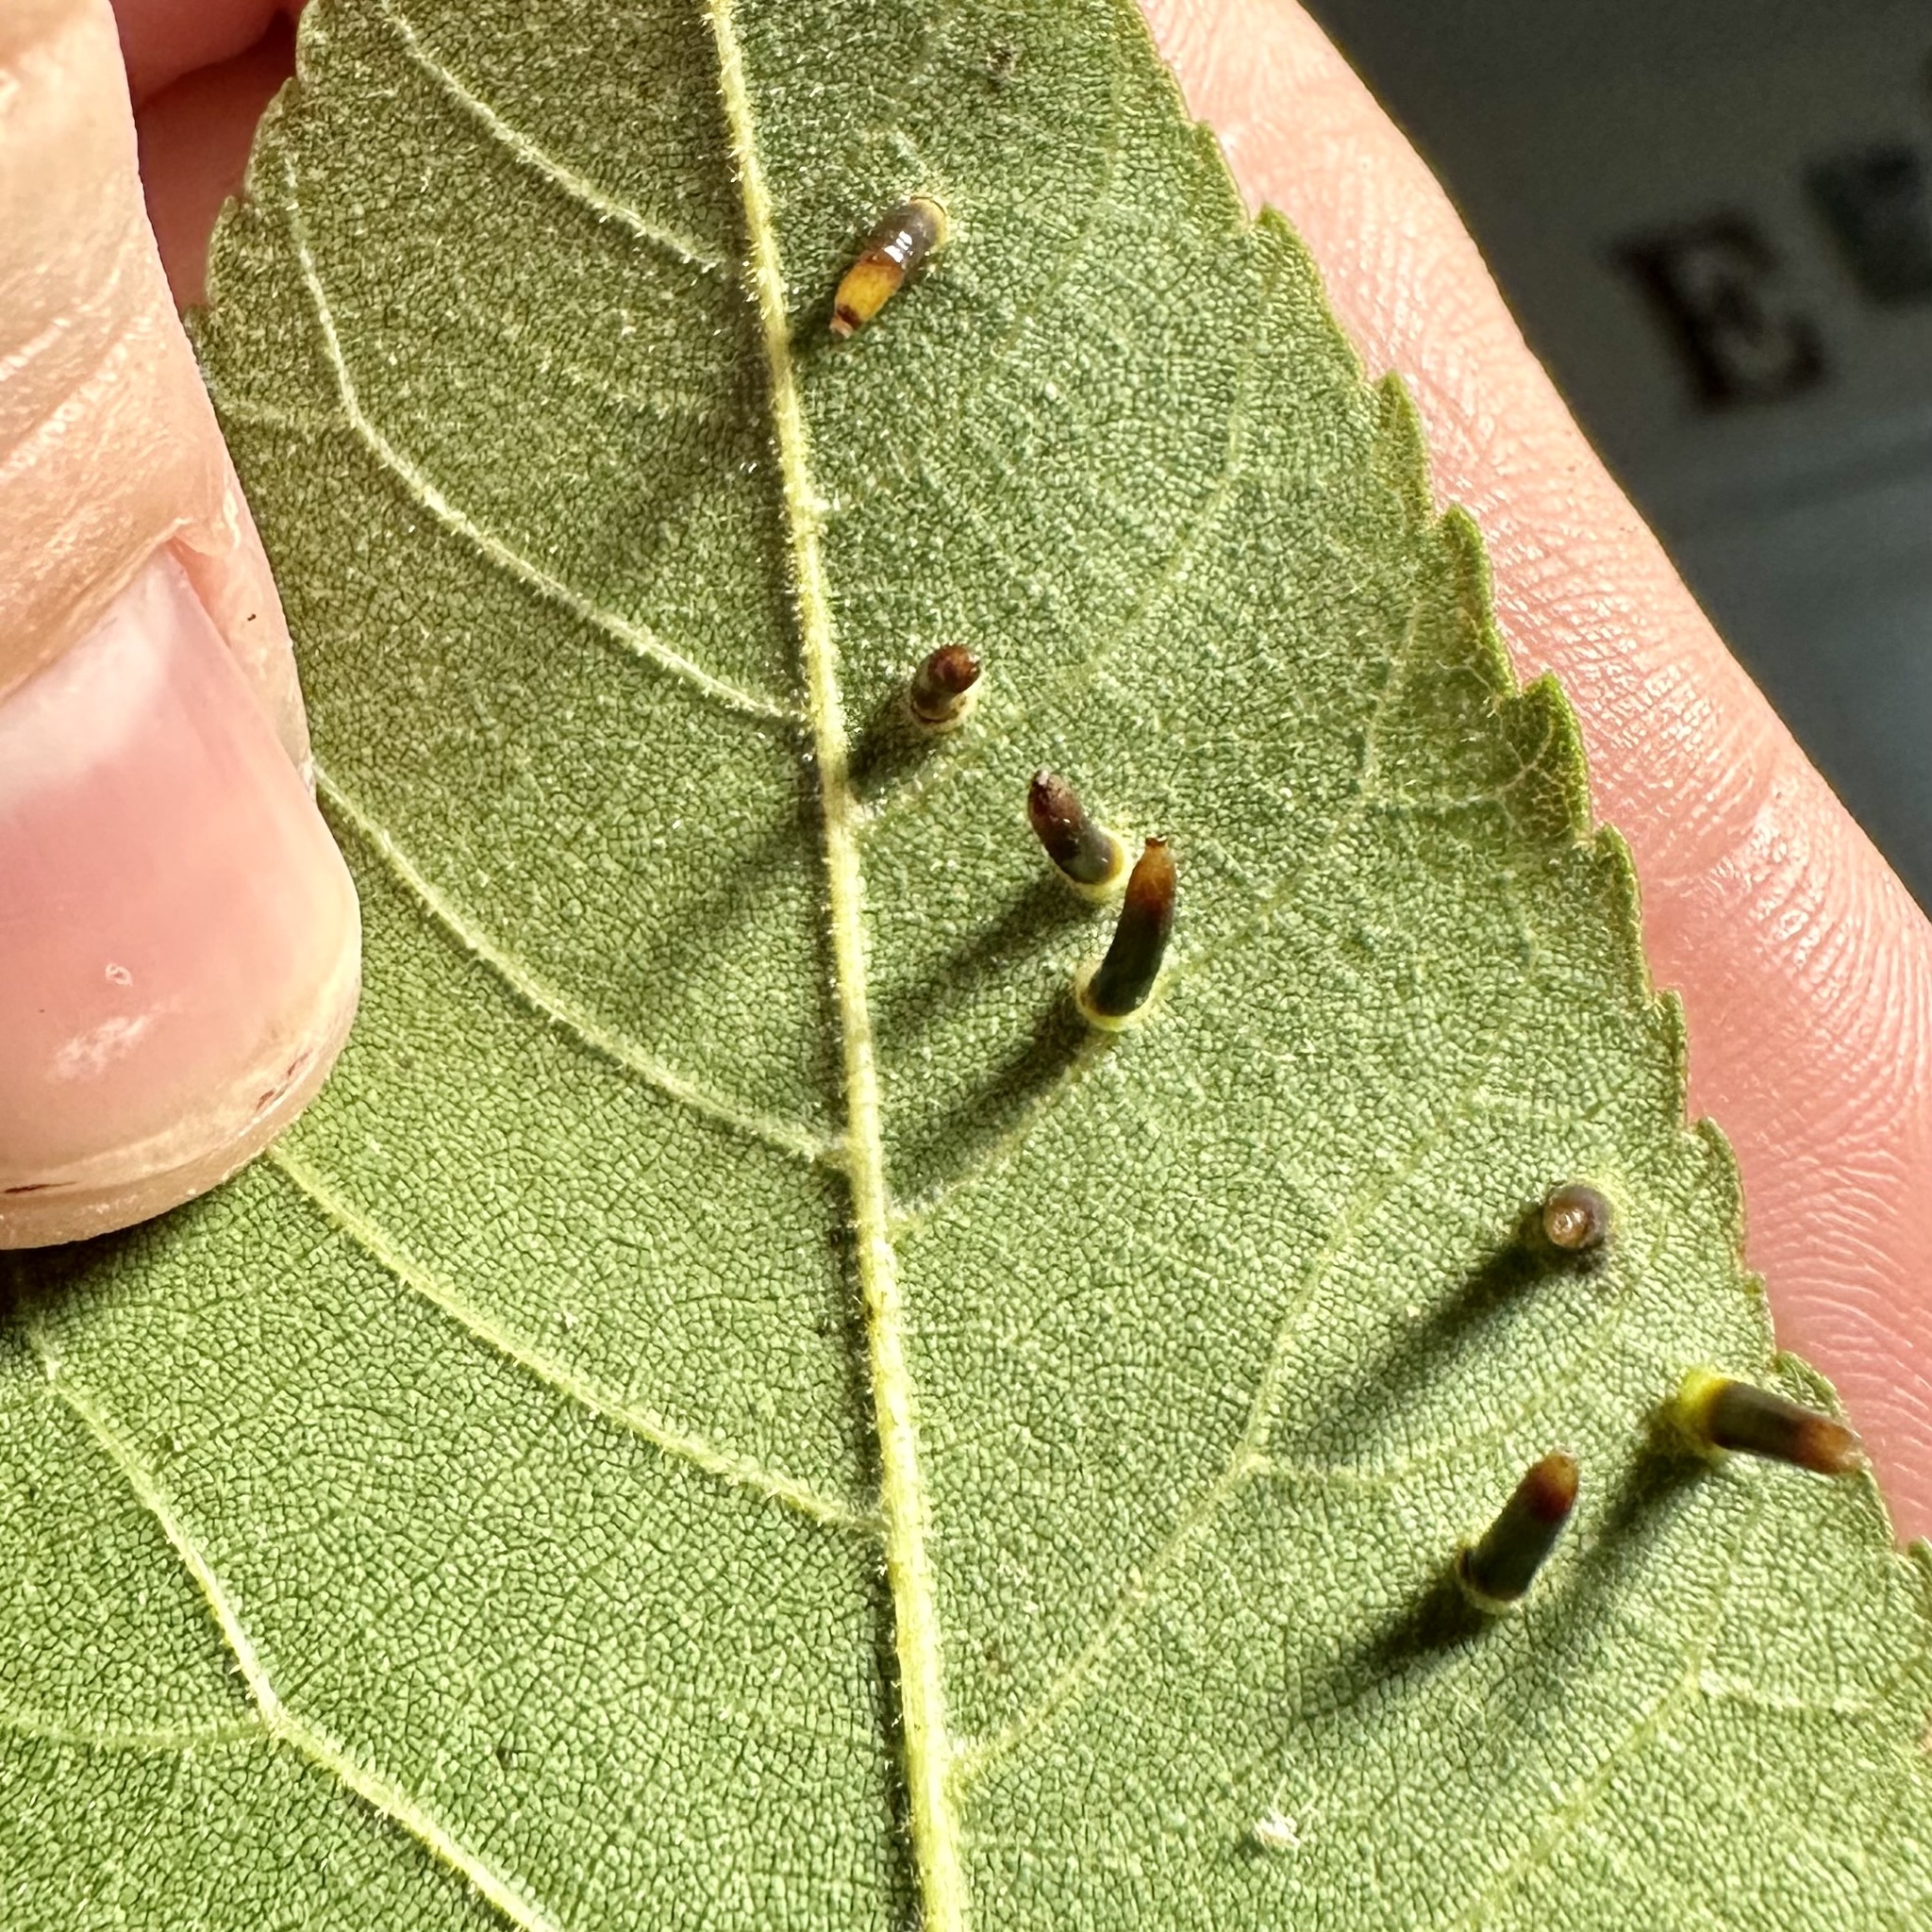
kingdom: Animalia
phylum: Arthropoda
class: Insecta
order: Diptera
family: Cecidomyiidae
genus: Caryomyia
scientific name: Caryomyia tubicola
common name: Hickory bullet gall midge
